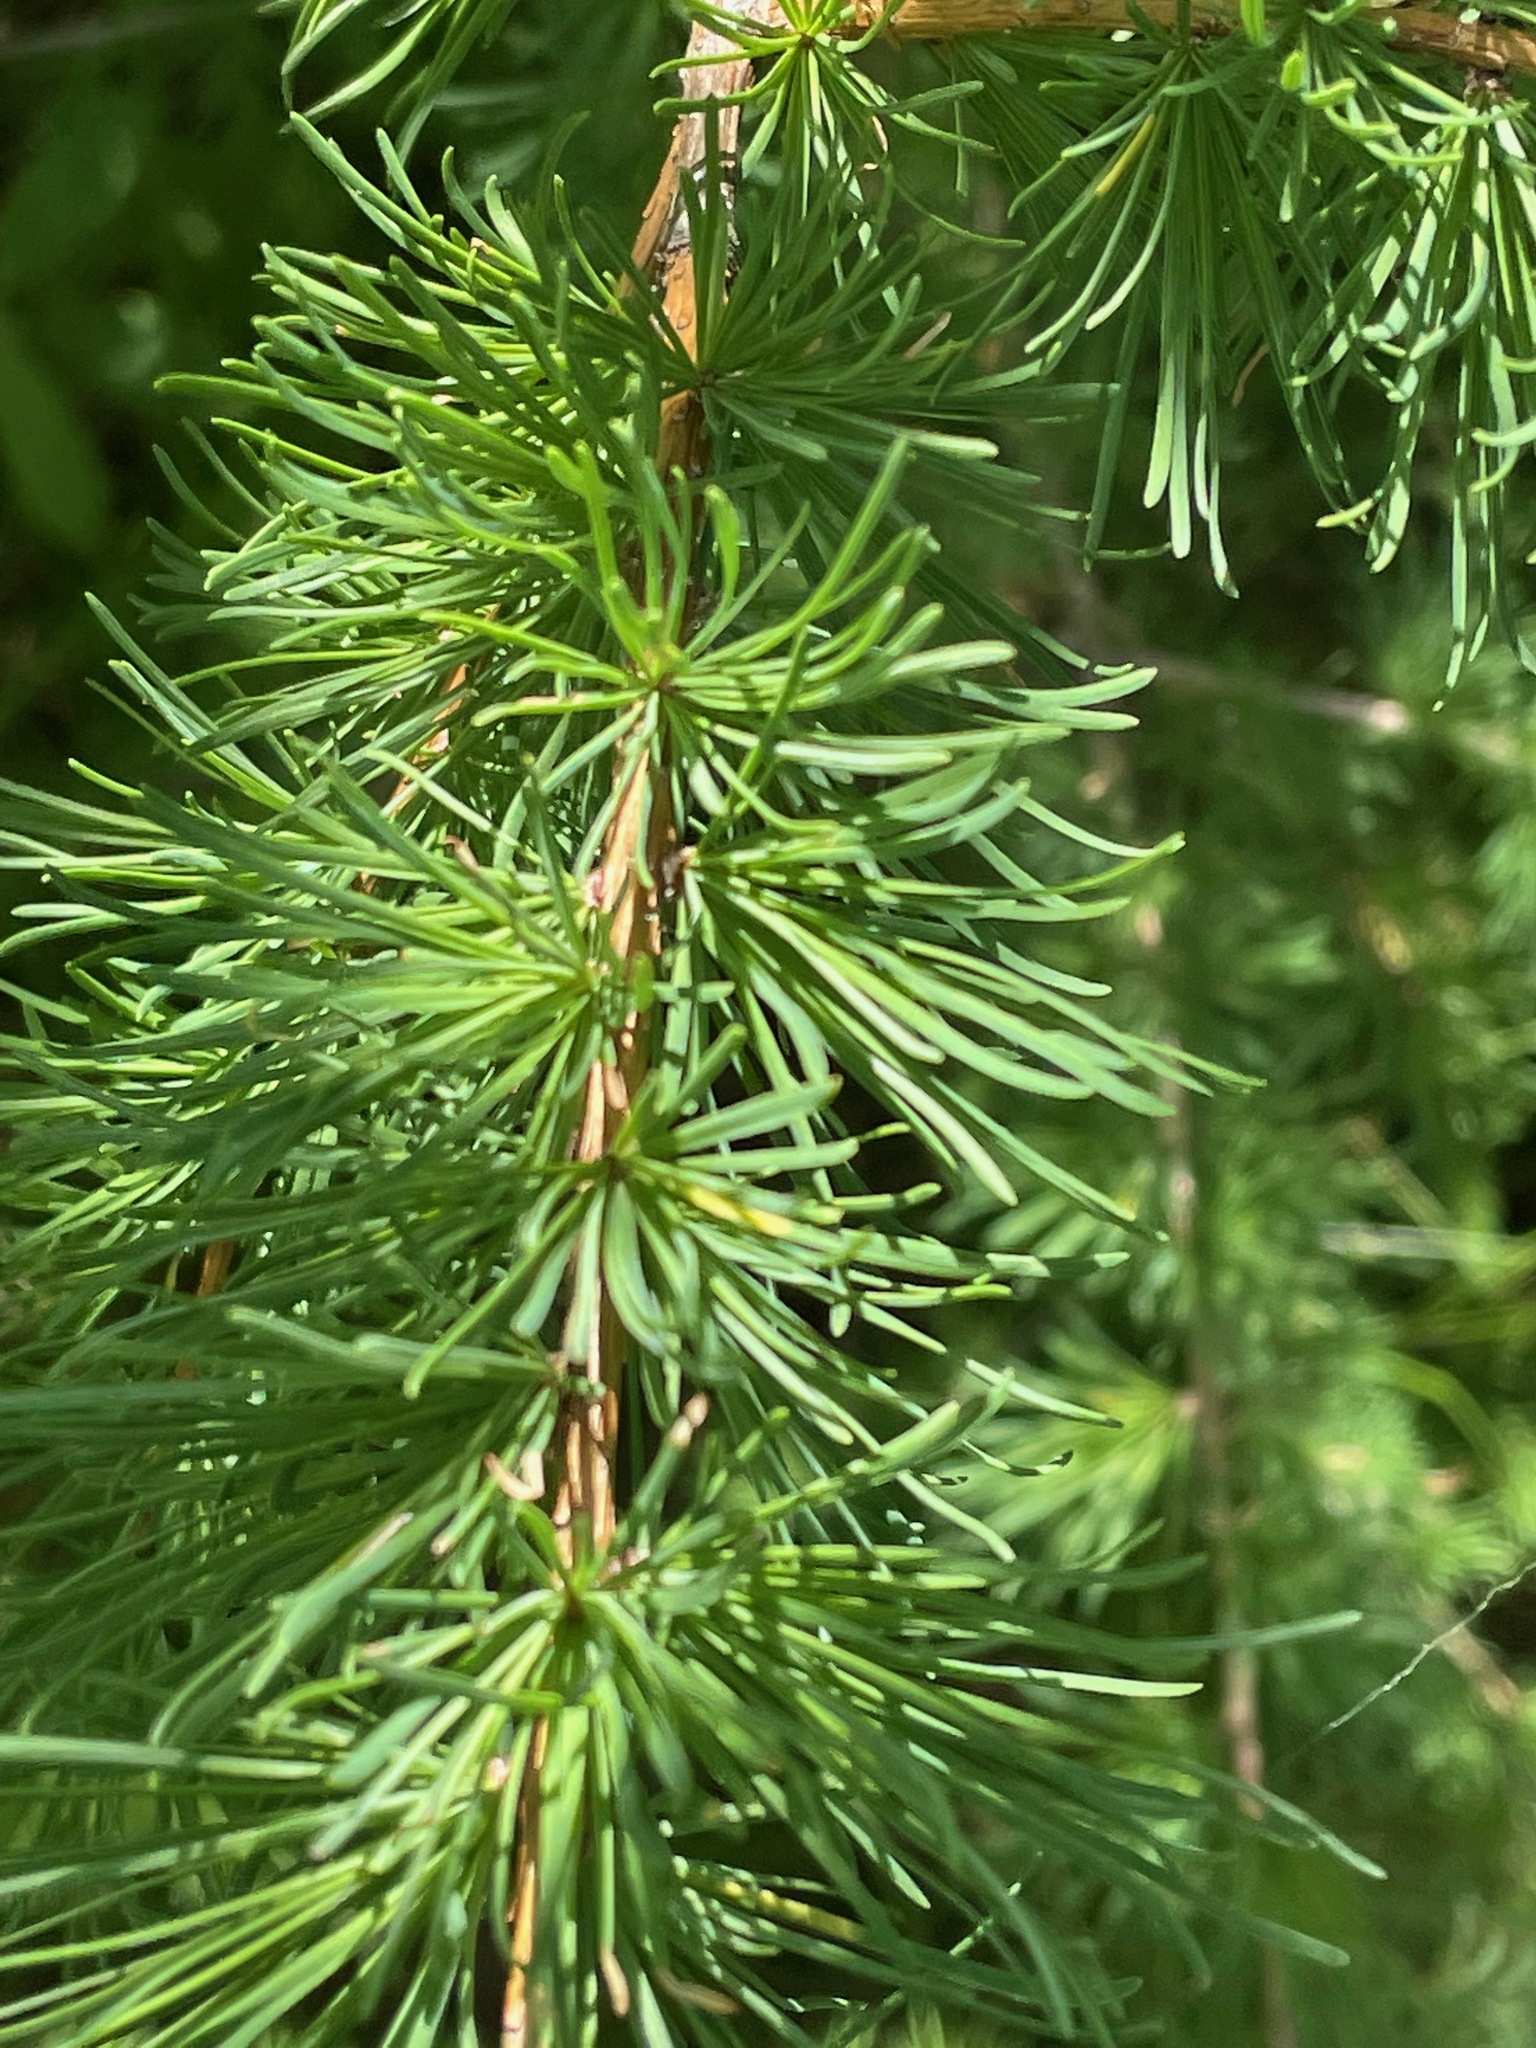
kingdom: Plantae
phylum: Tracheophyta
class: Pinopsida
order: Pinales
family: Pinaceae
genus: Larix
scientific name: Larix laricina
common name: American larch
